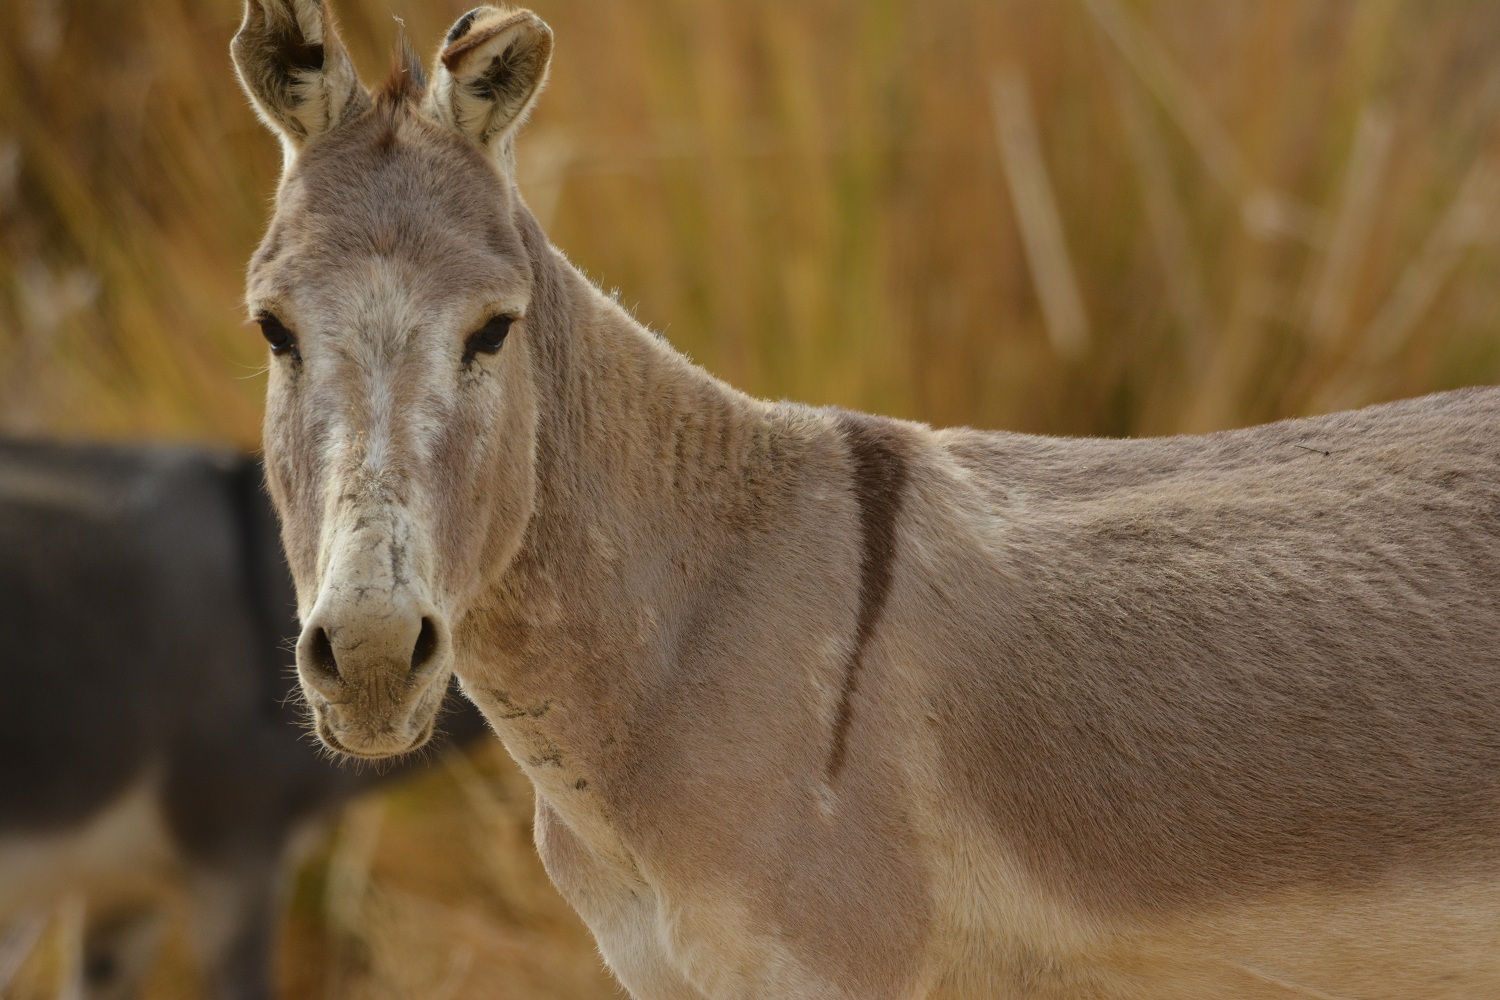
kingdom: Animalia
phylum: Chordata
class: Mammalia
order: Perissodactyla
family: Equidae
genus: Equus
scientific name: Equus asinus
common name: Ass
